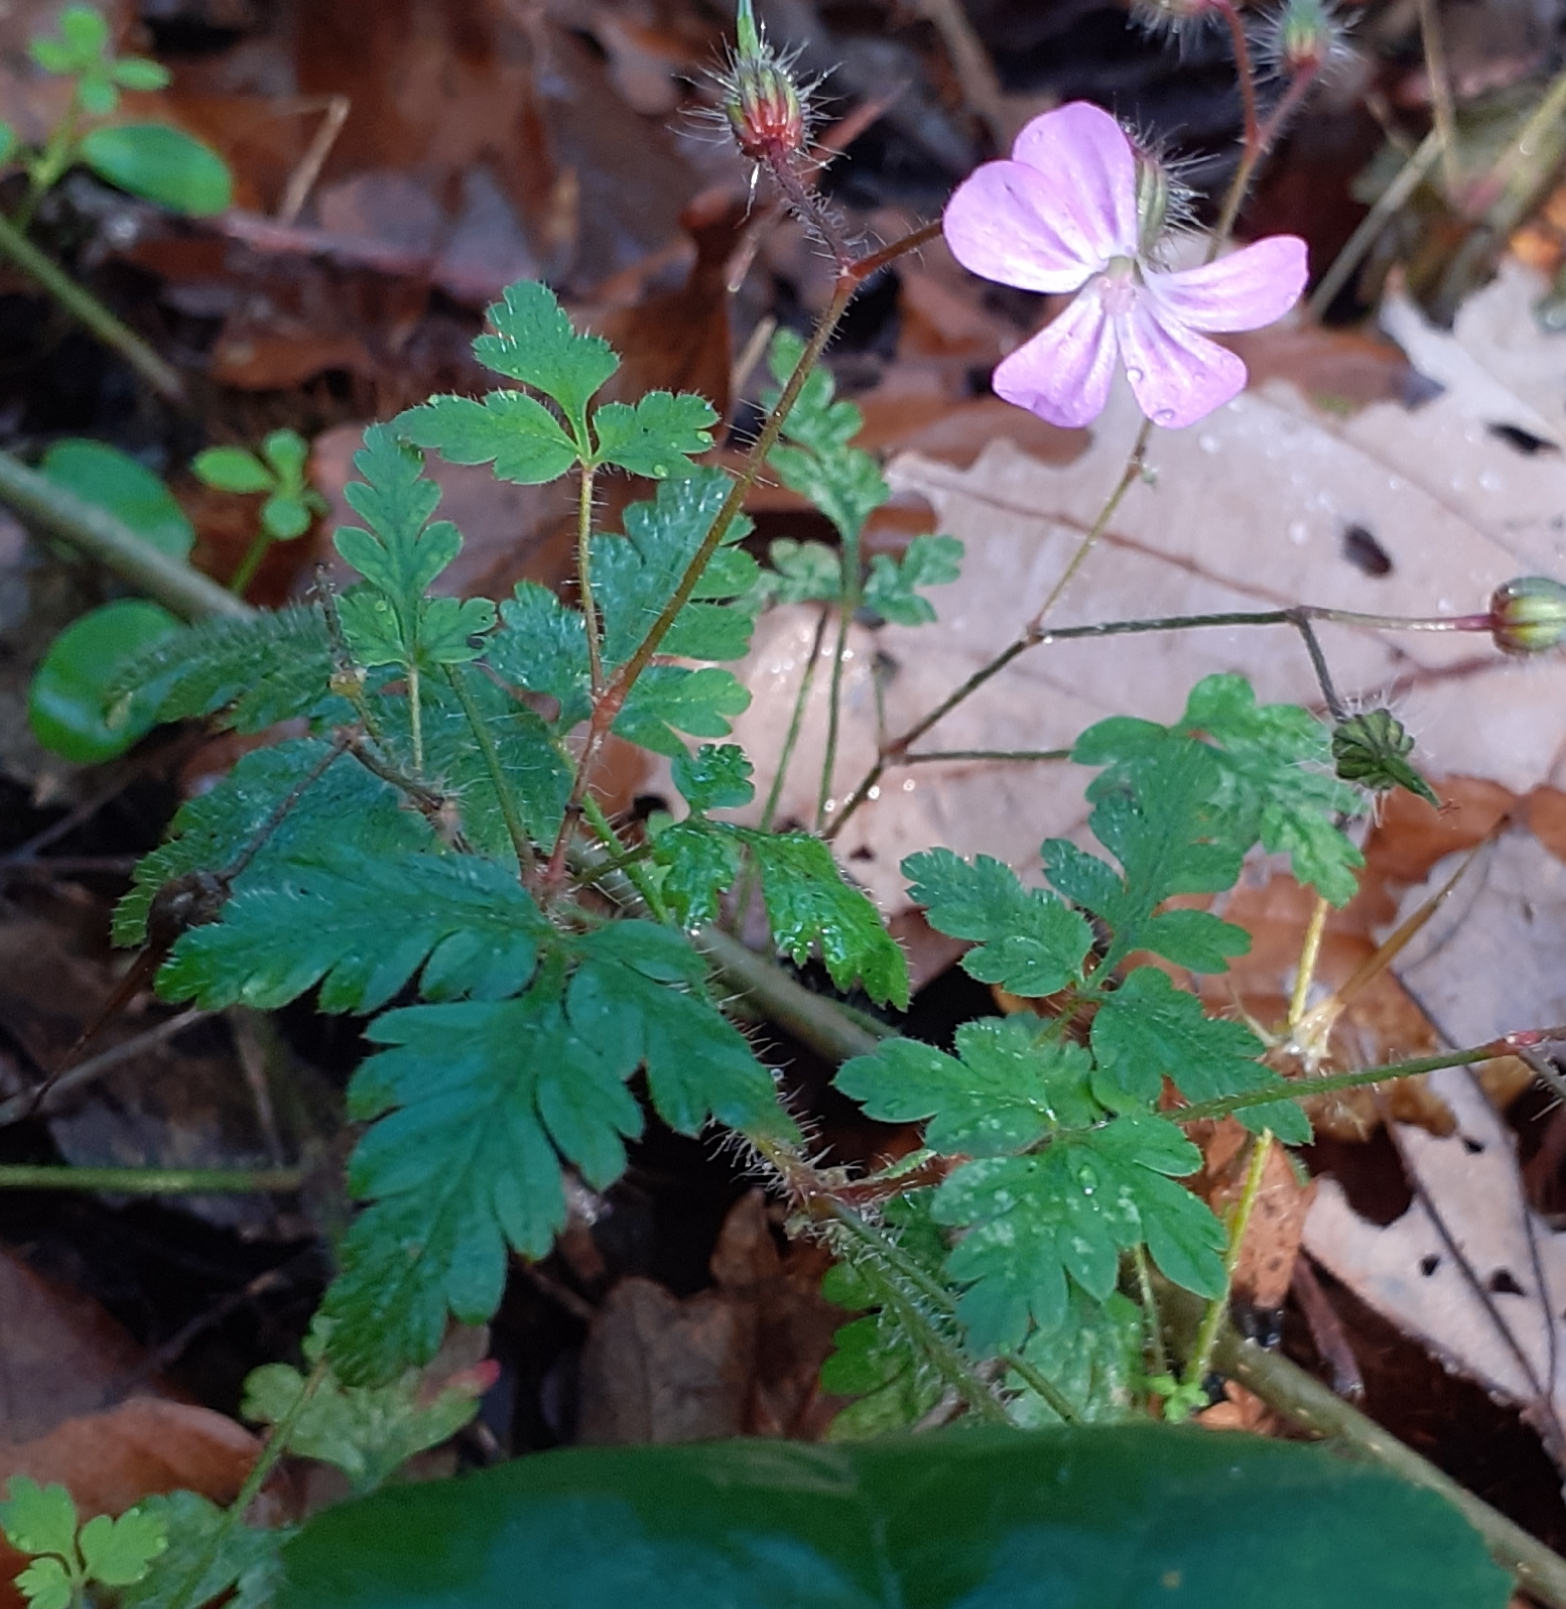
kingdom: Plantae
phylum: Tracheophyta
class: Magnoliopsida
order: Geraniales
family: Geraniaceae
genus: Geranium
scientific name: Geranium robertianum
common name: Herb-robert
